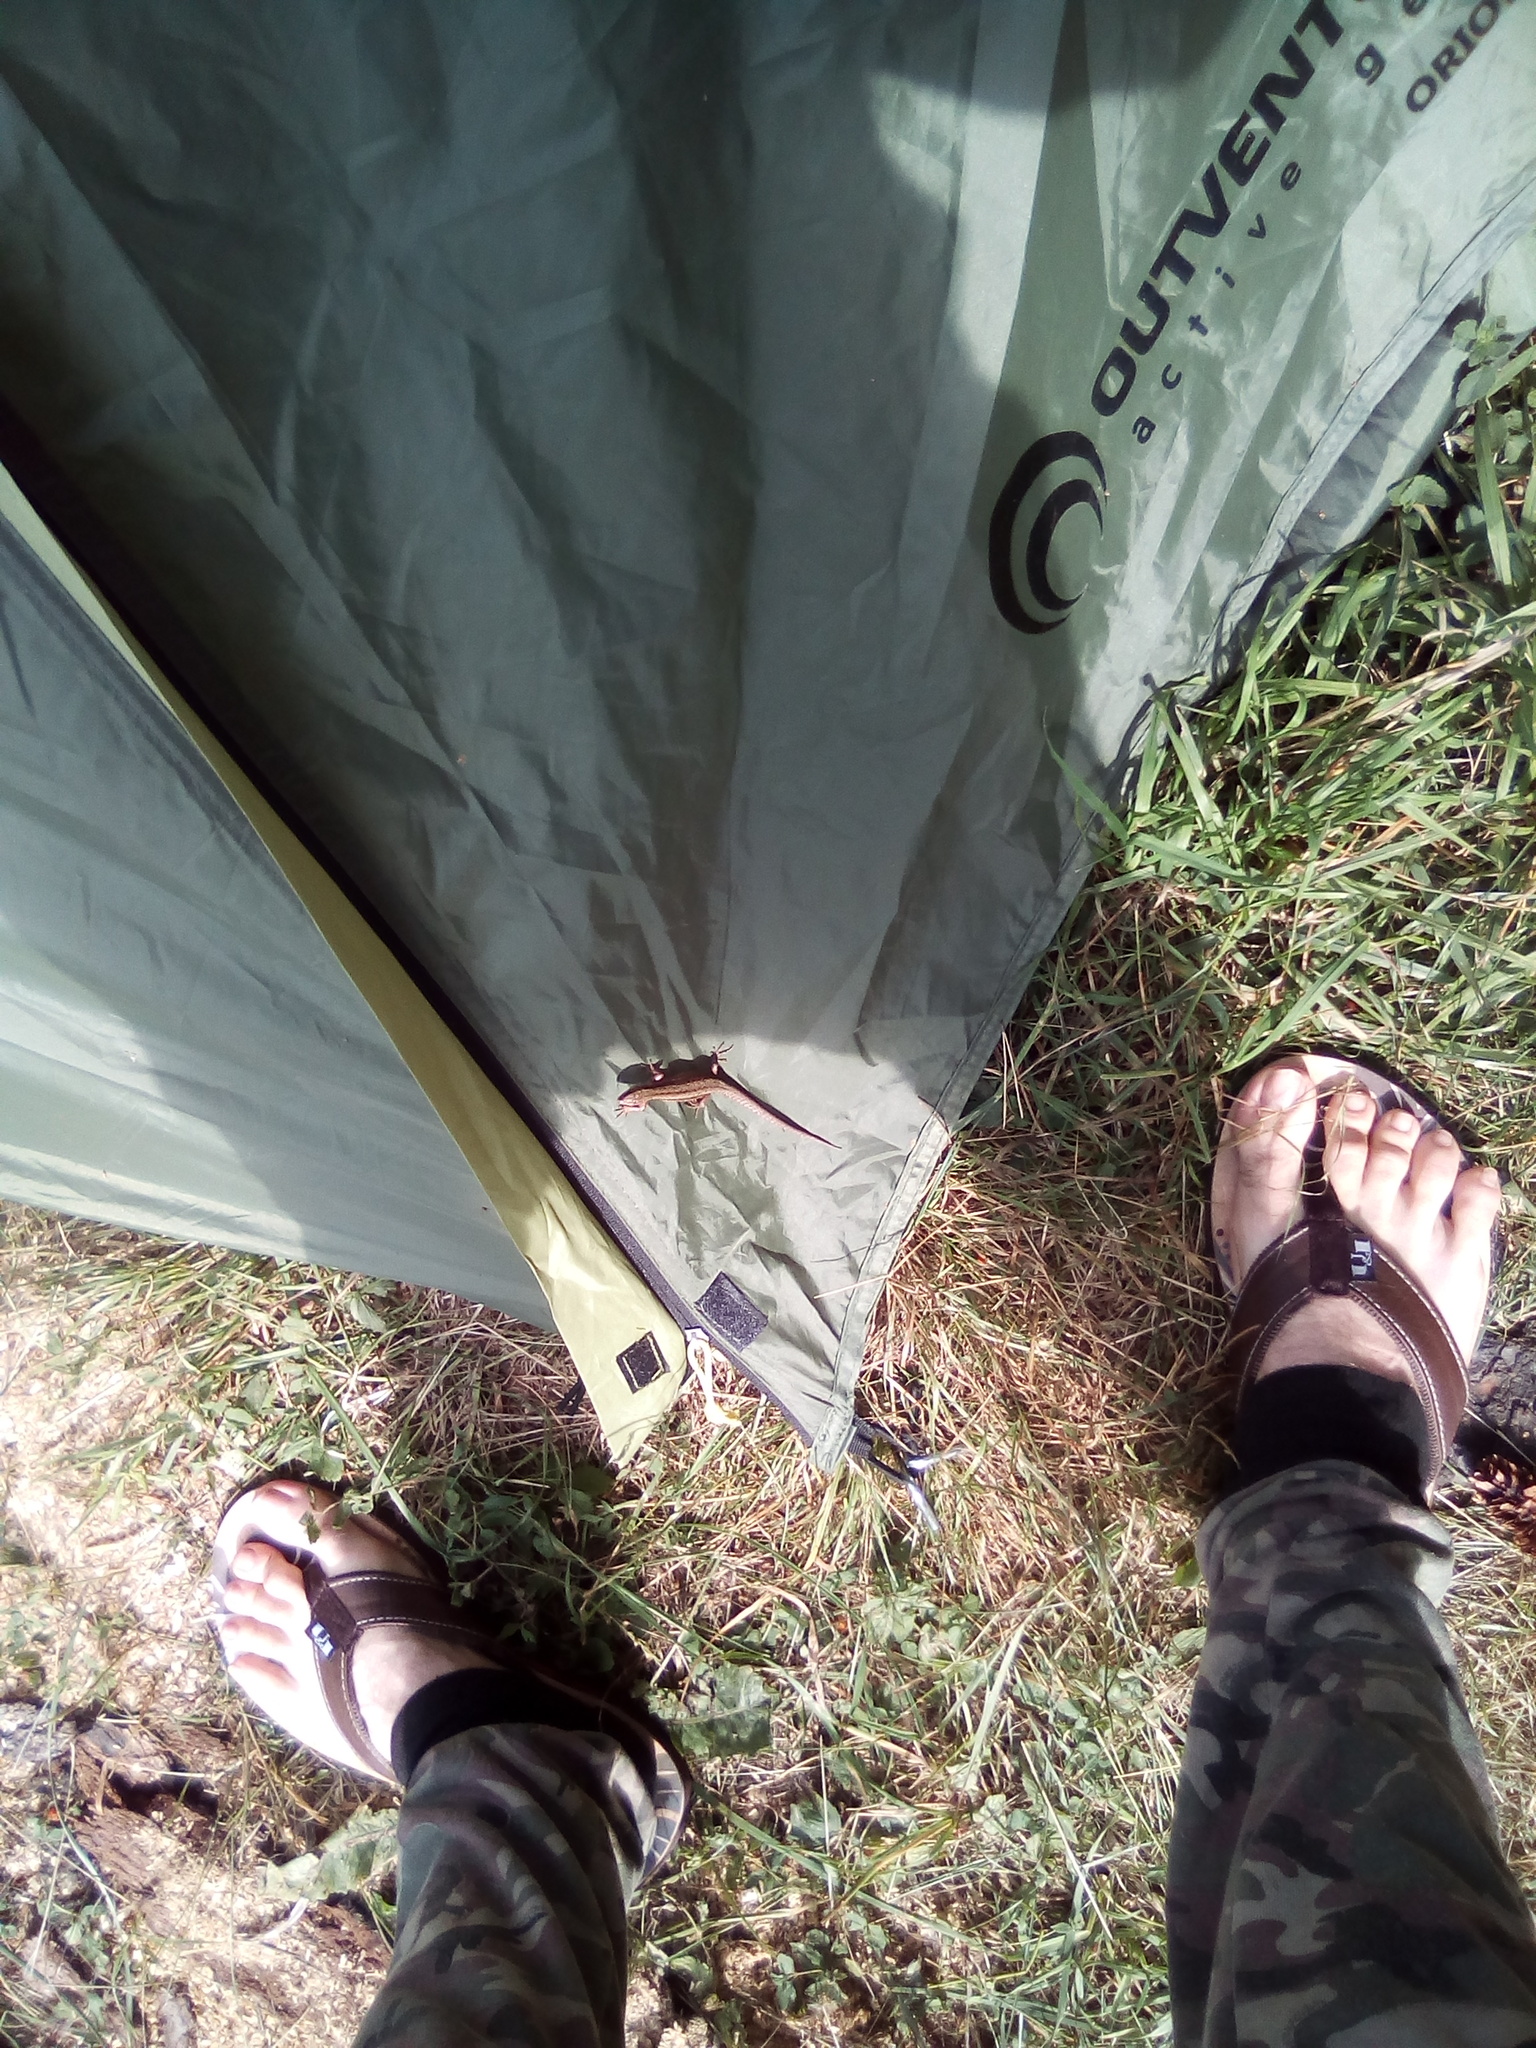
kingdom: Animalia
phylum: Chordata
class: Squamata
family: Lacertidae
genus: Zootoca
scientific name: Zootoca vivipara
